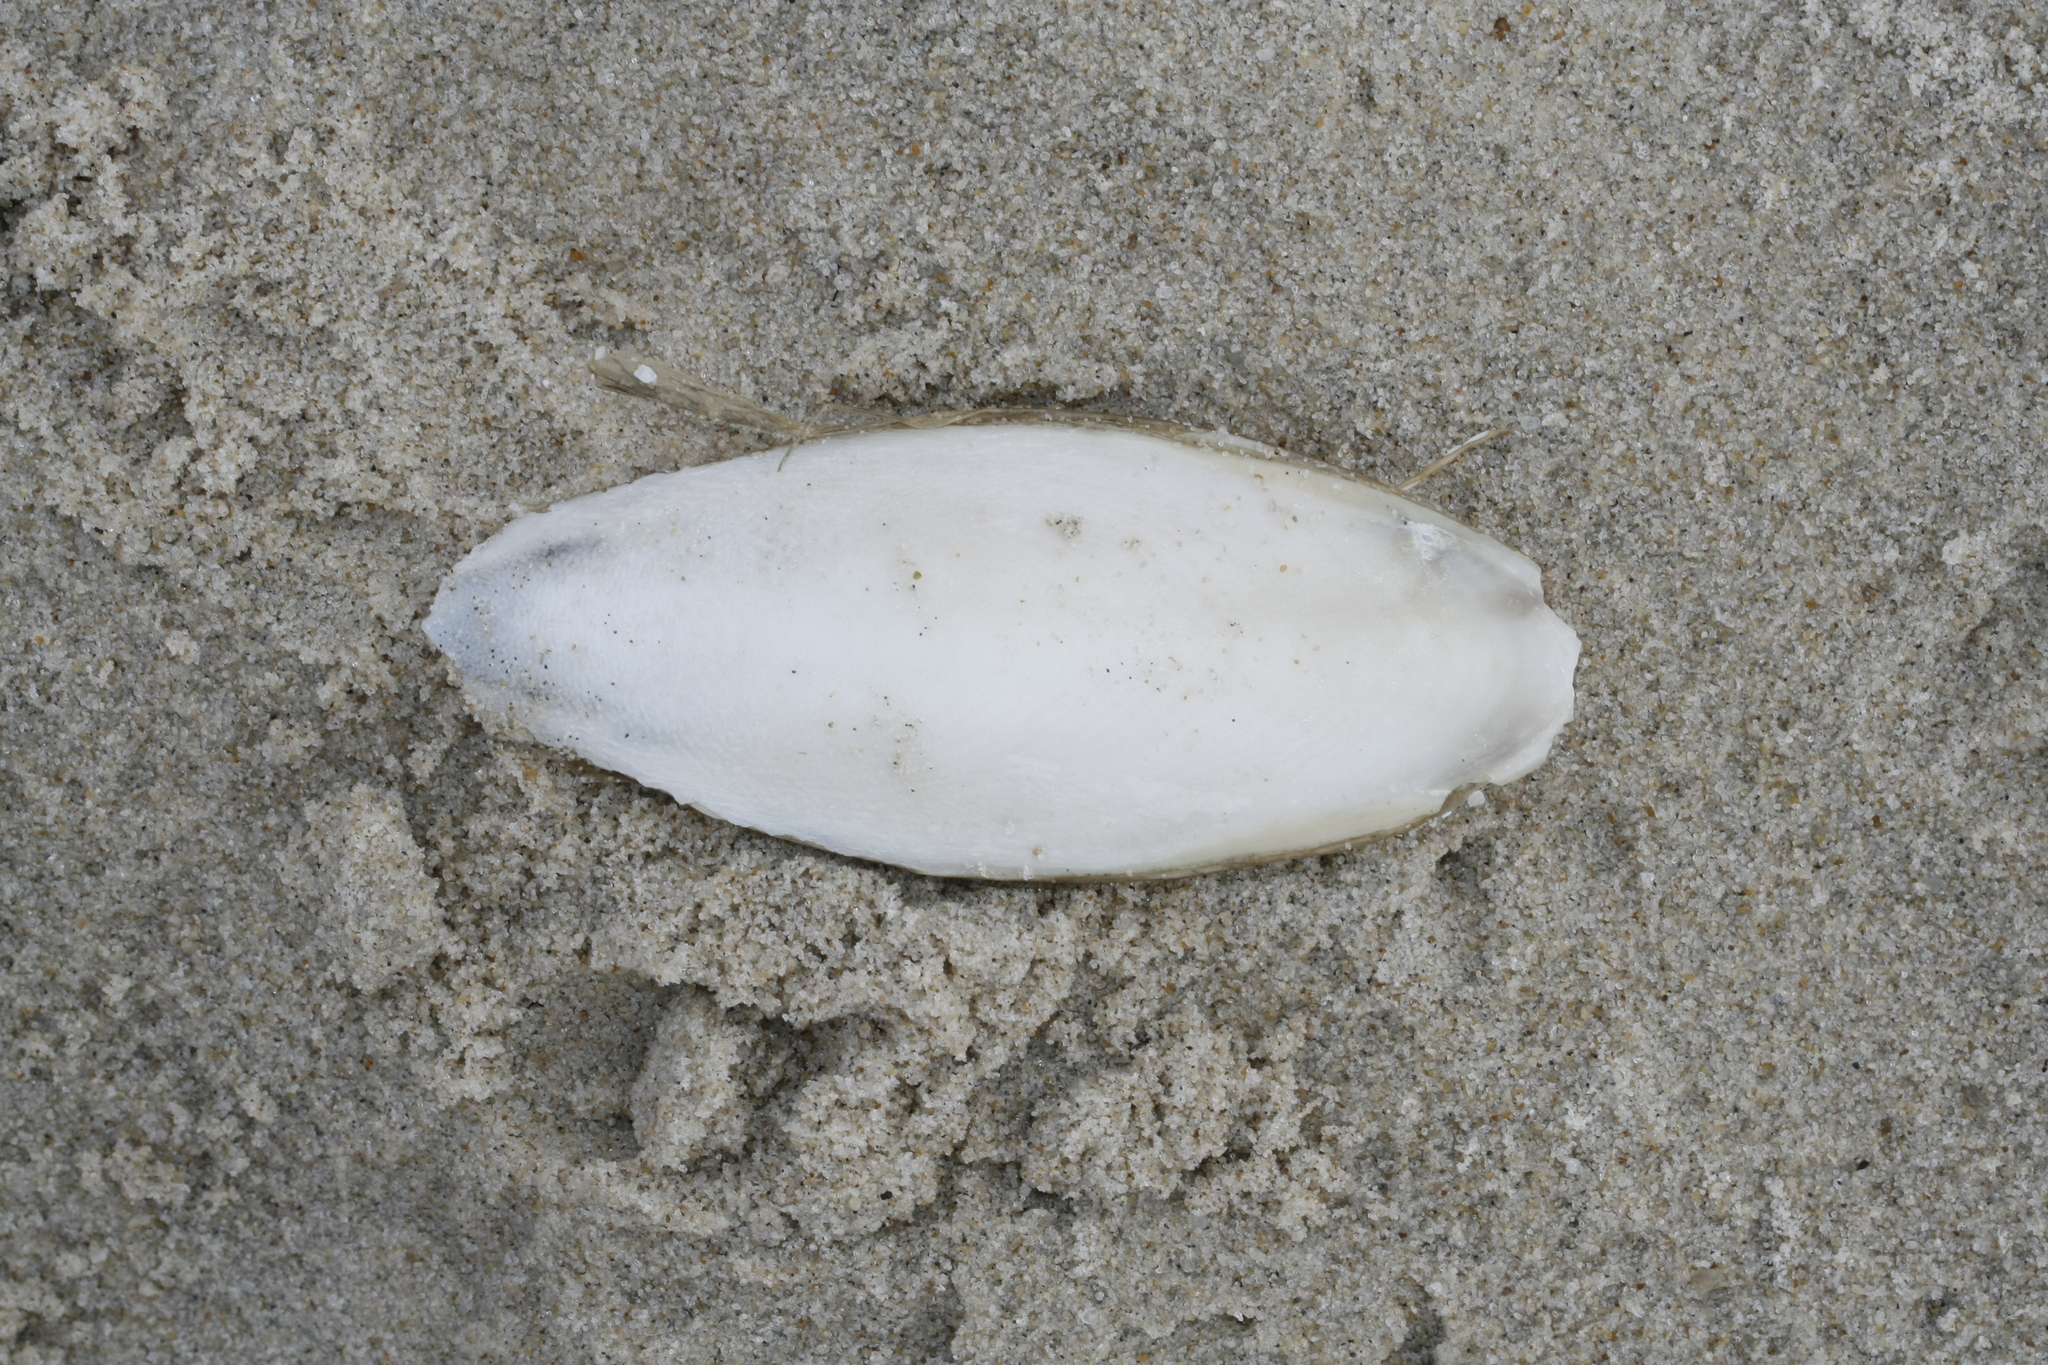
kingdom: Animalia
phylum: Mollusca
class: Cephalopoda
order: Sepiida
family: Sepiidae
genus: Sepia
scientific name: Sepia officinalis
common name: Common cuttlefish
